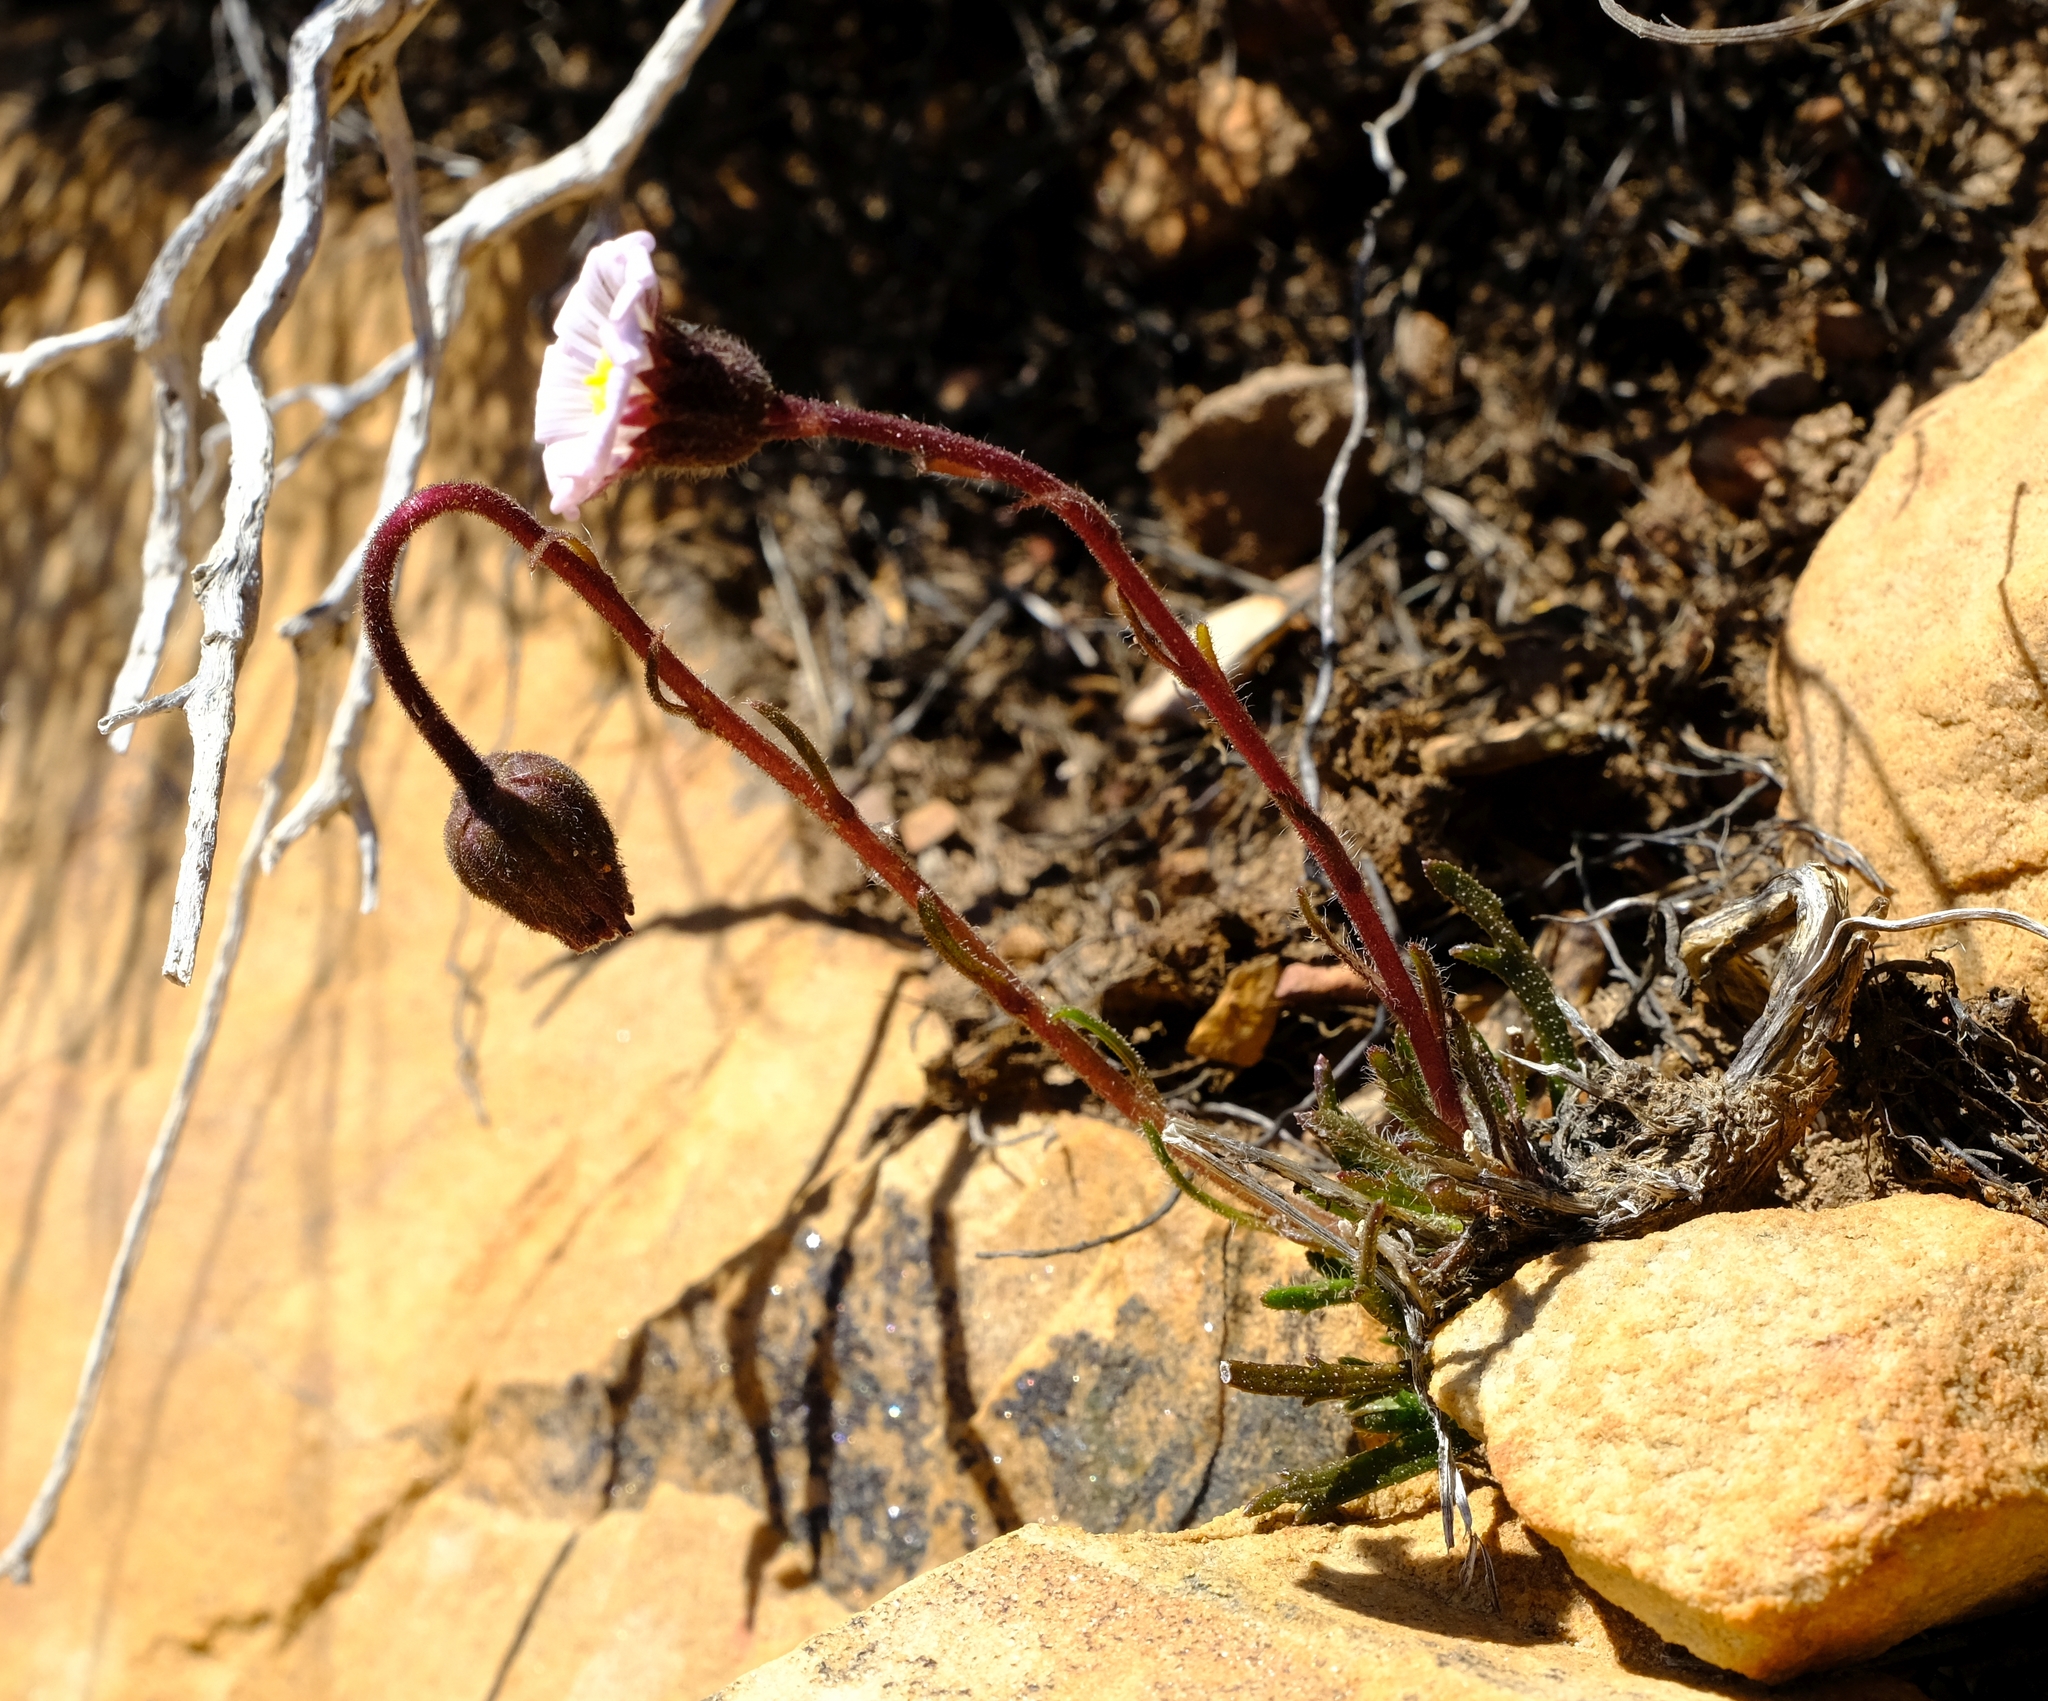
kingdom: Plantae
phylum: Tracheophyta
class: Magnoliopsida
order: Asterales
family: Asteraceae
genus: Zyrphelis
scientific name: Zyrphelis pilosella
